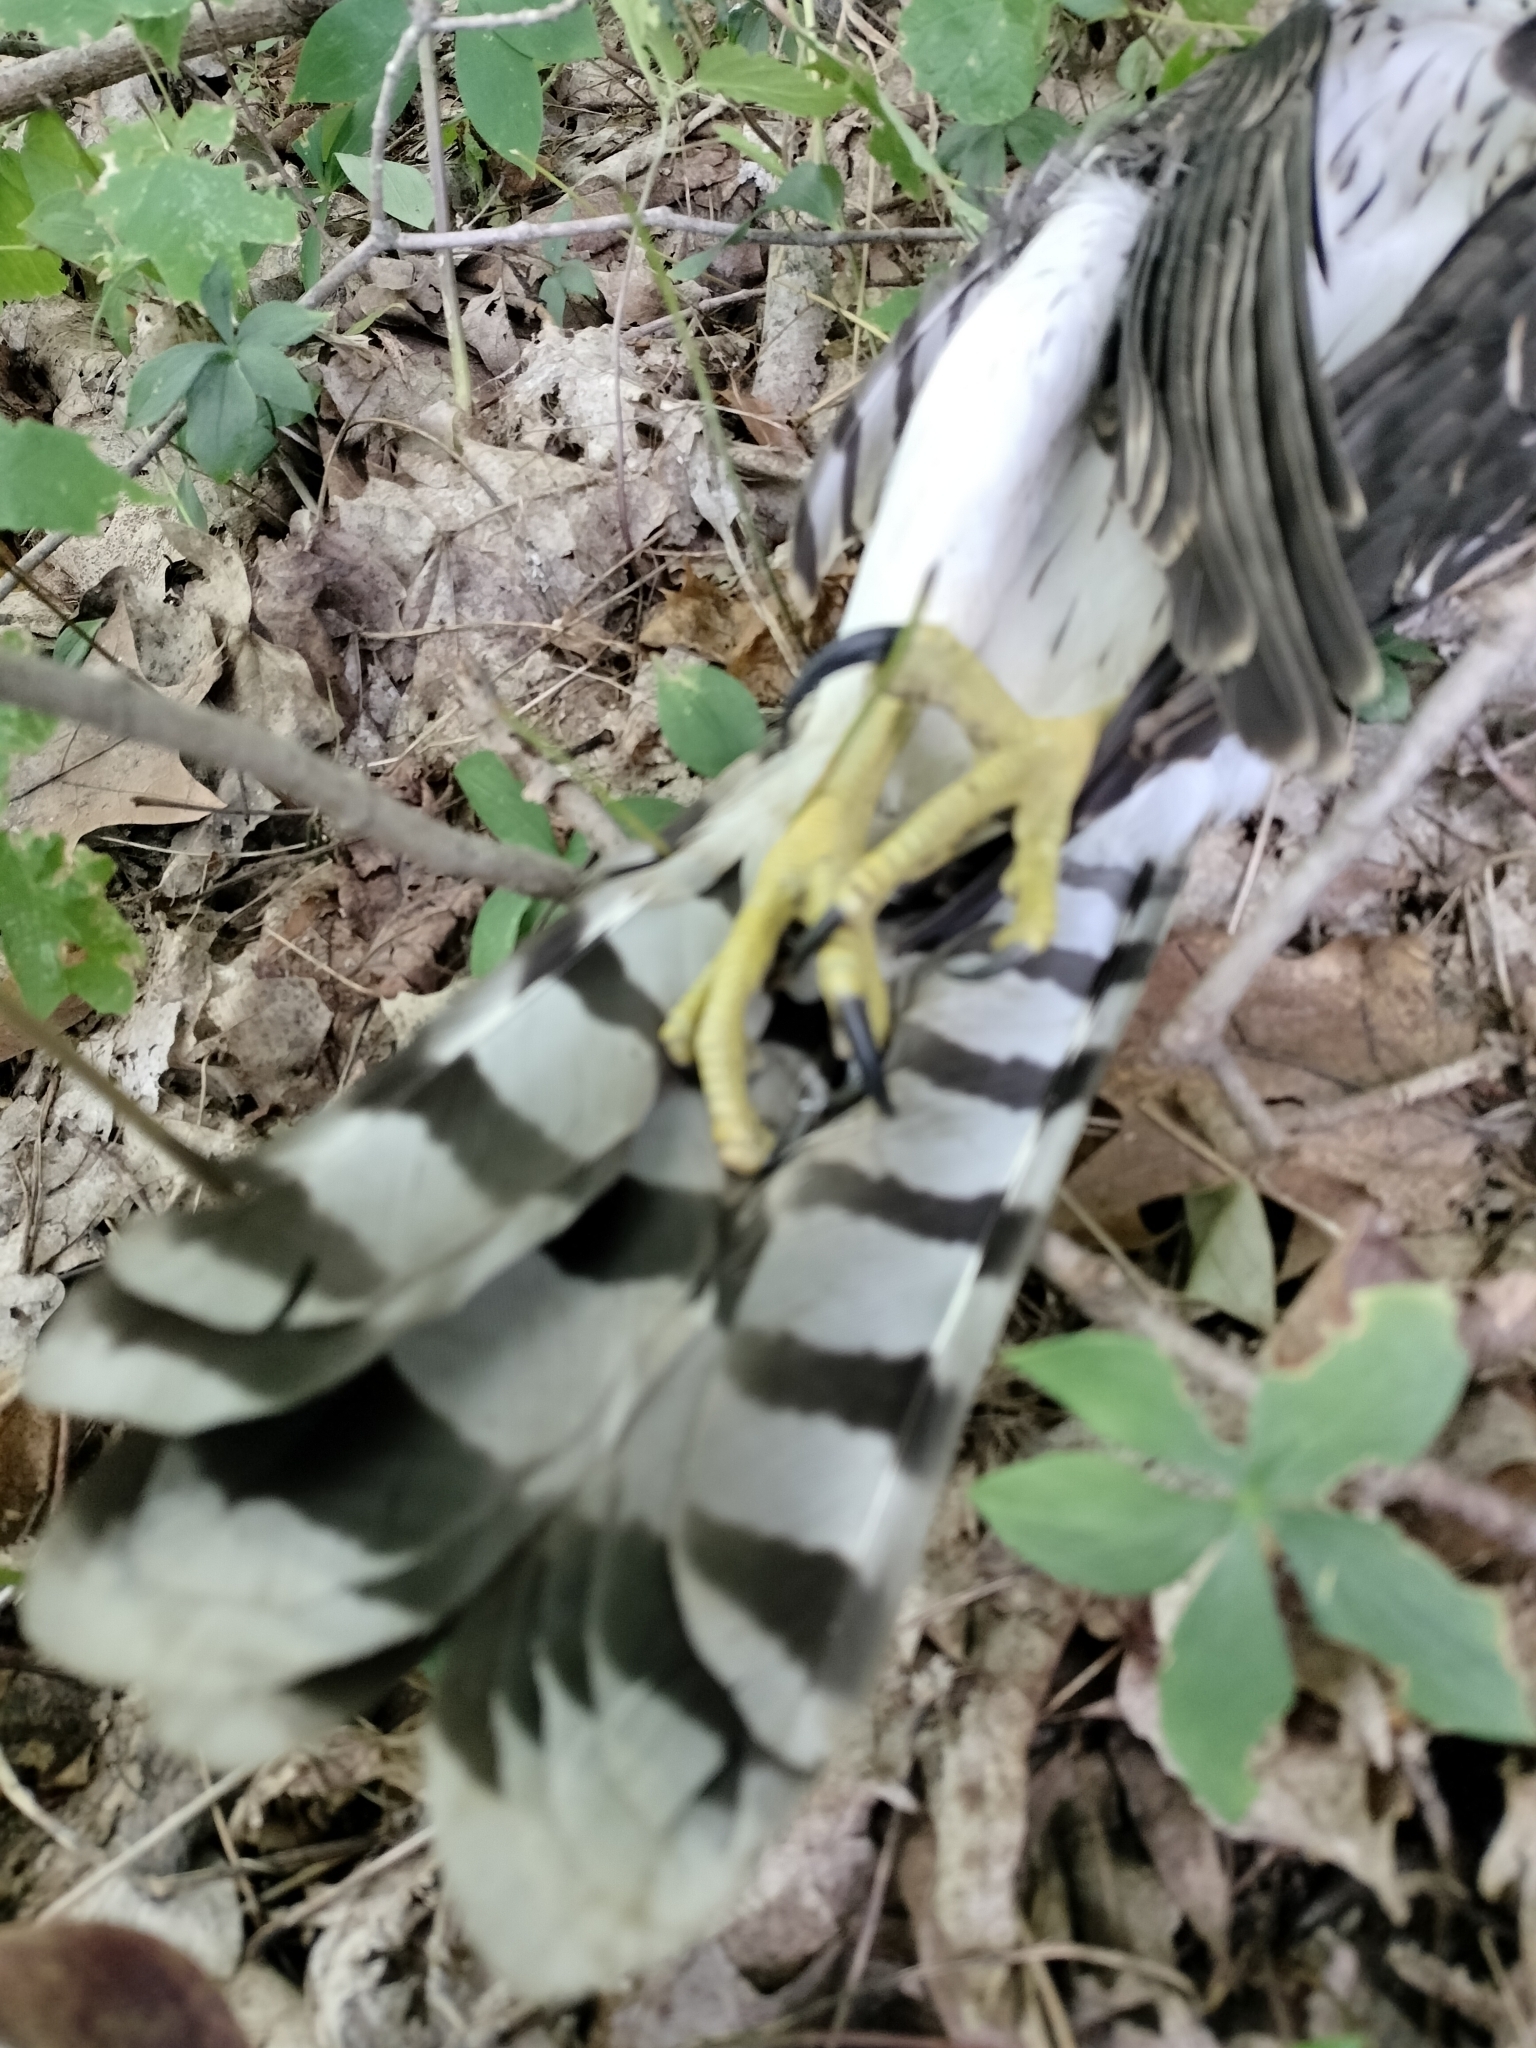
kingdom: Animalia
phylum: Chordata
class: Aves
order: Accipitriformes
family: Accipitridae
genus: Accipiter
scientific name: Accipiter cooperii
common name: Cooper's hawk
